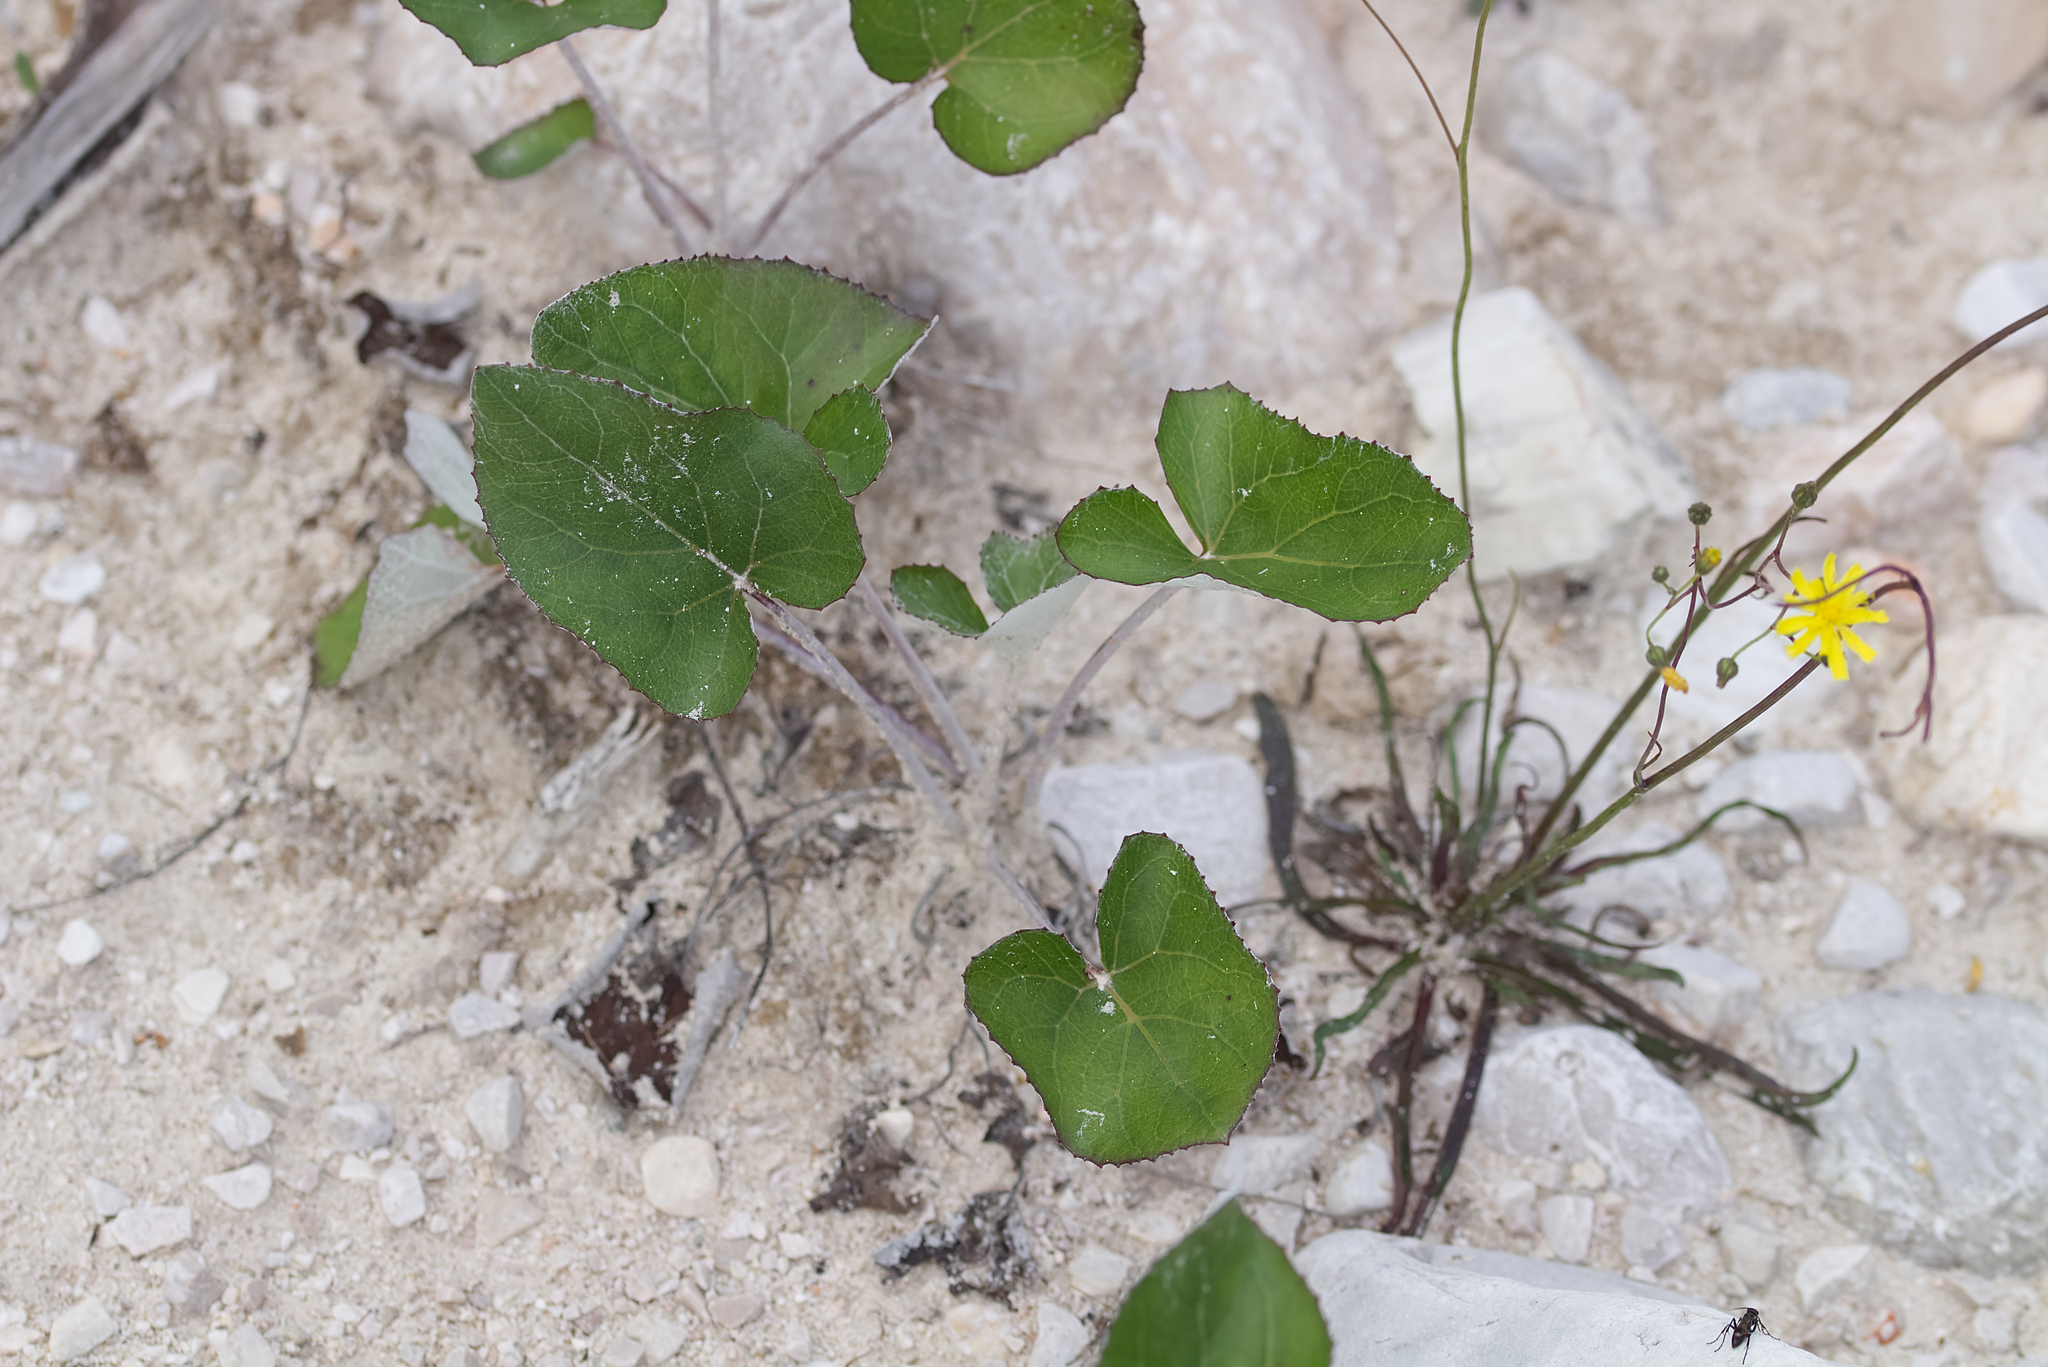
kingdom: Plantae
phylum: Tracheophyta
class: Magnoliopsida
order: Asterales
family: Asteraceae
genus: Petasites
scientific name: Petasites paradoxus
